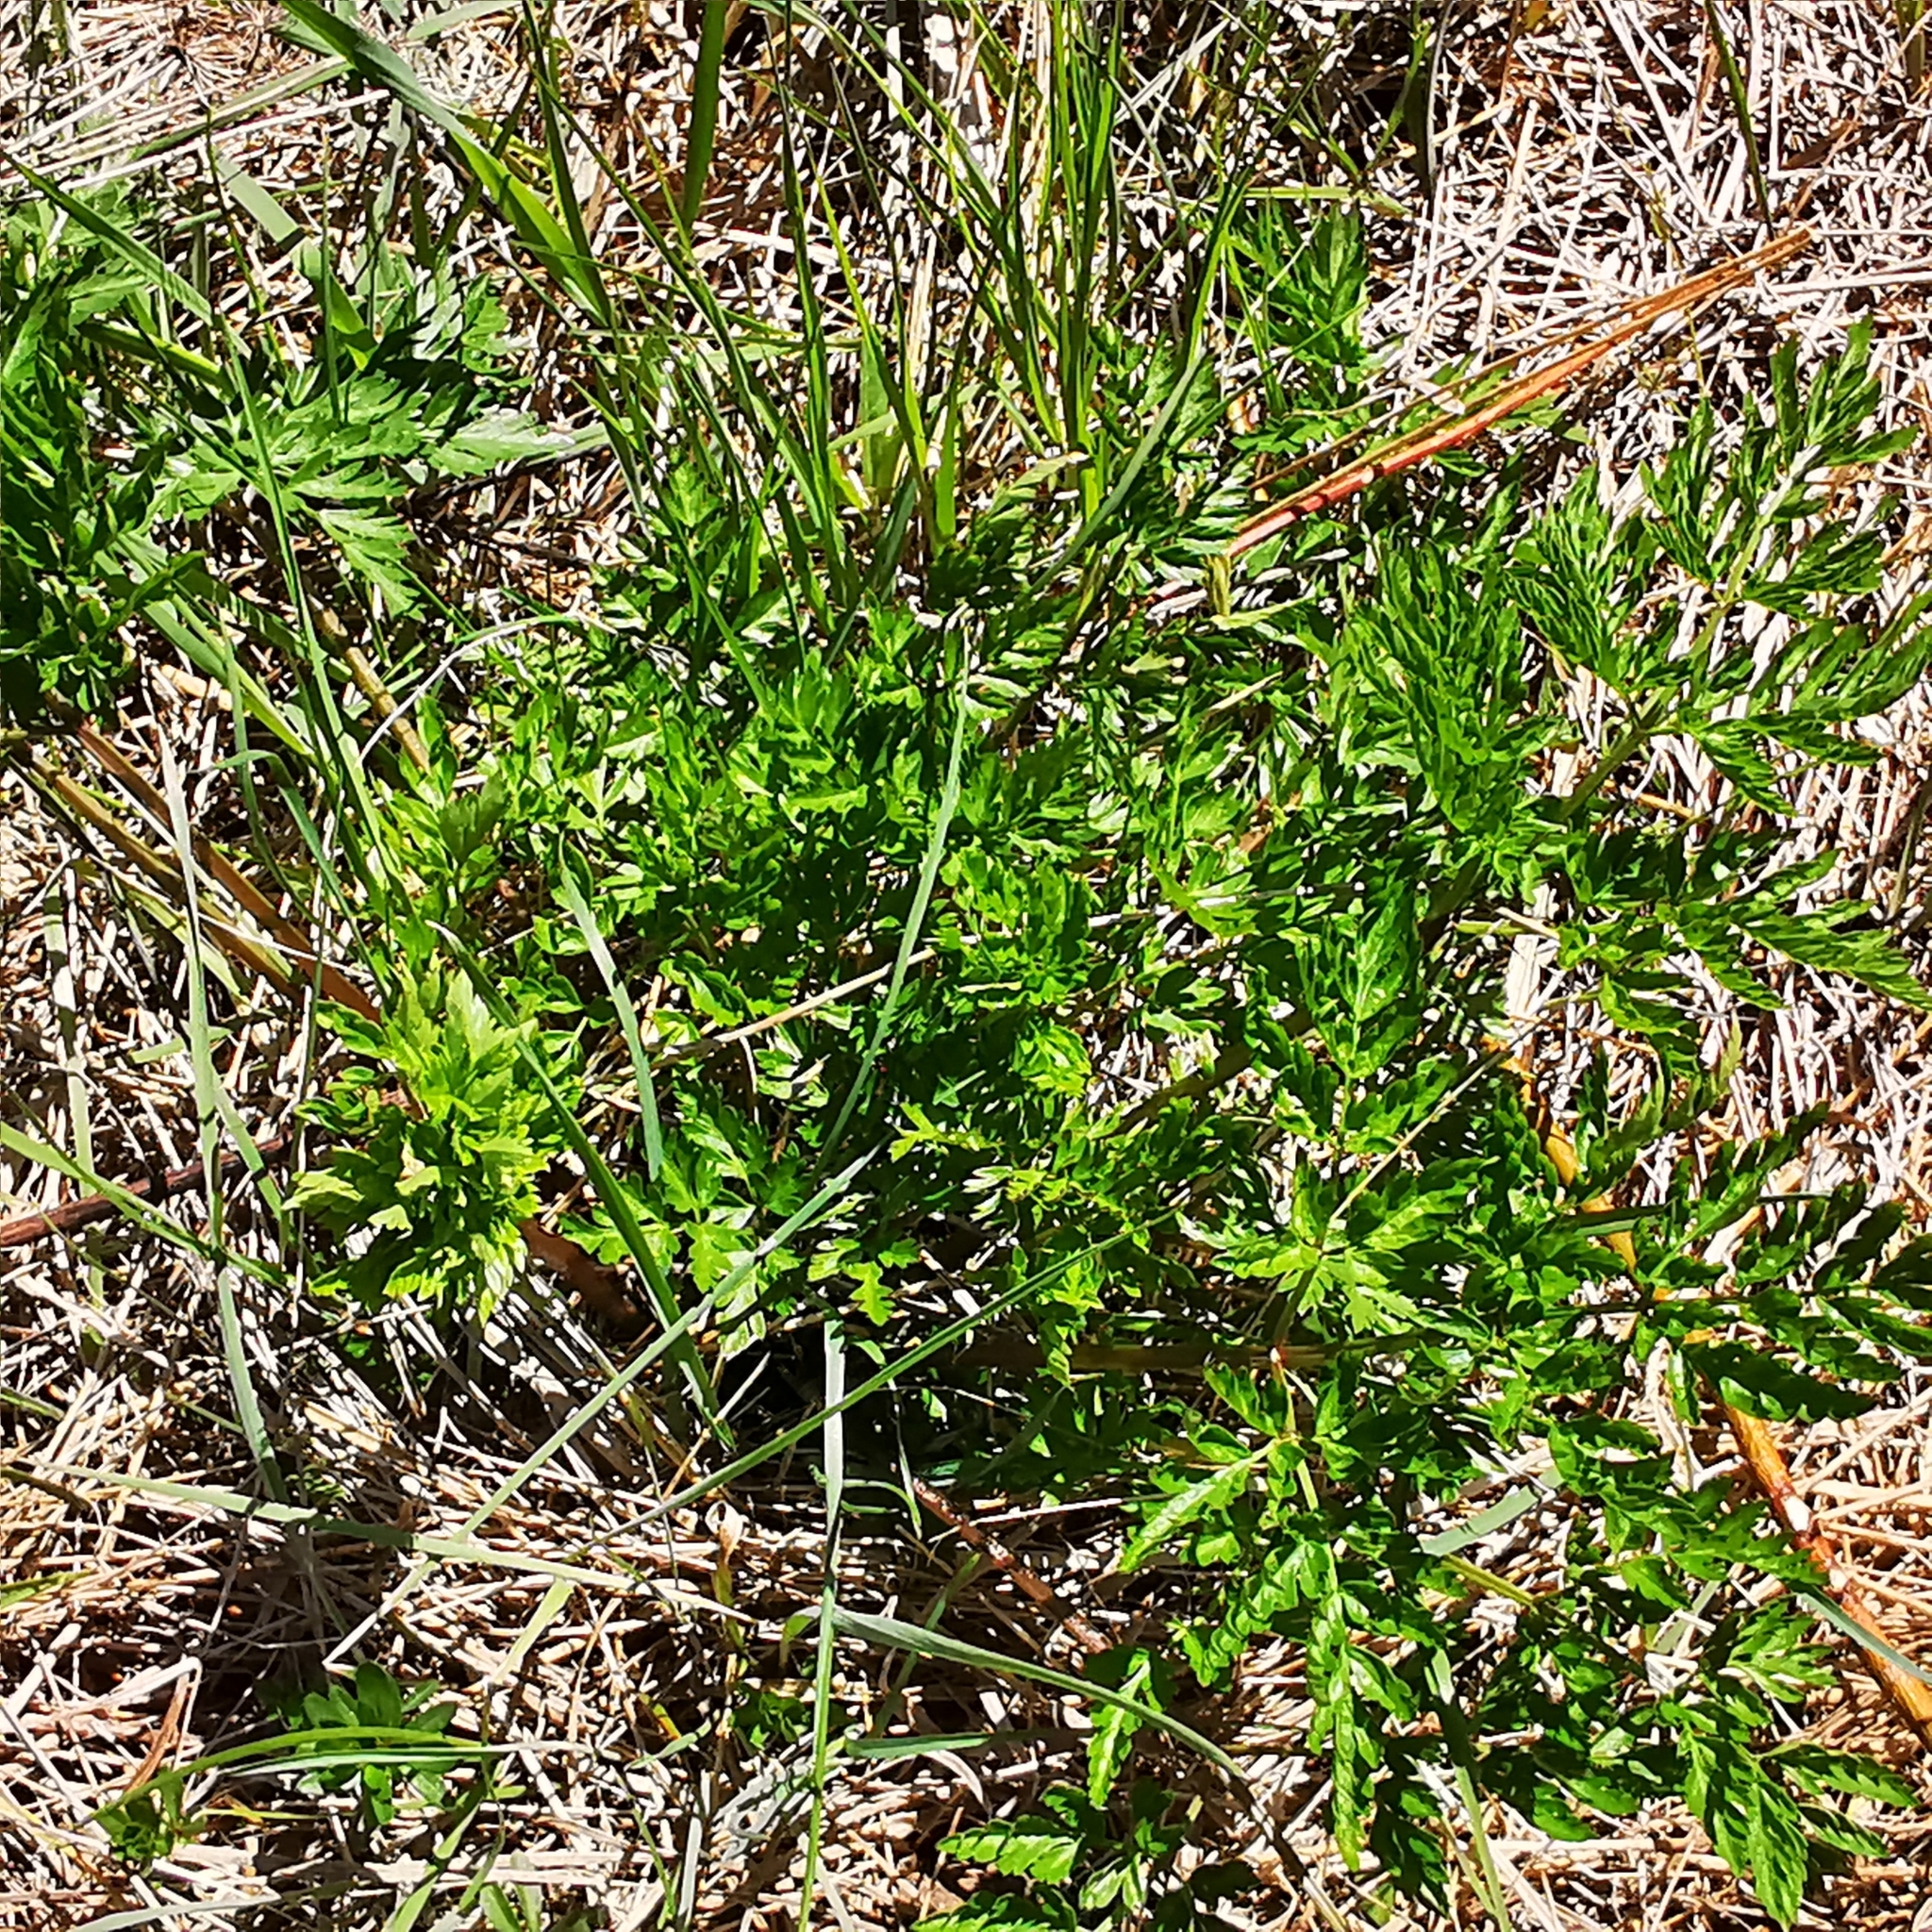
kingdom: Plantae
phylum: Tracheophyta
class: Magnoliopsida
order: Apiales
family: Apiaceae
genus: Anthriscus
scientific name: Anthriscus sylvestris
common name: Cow parsley
